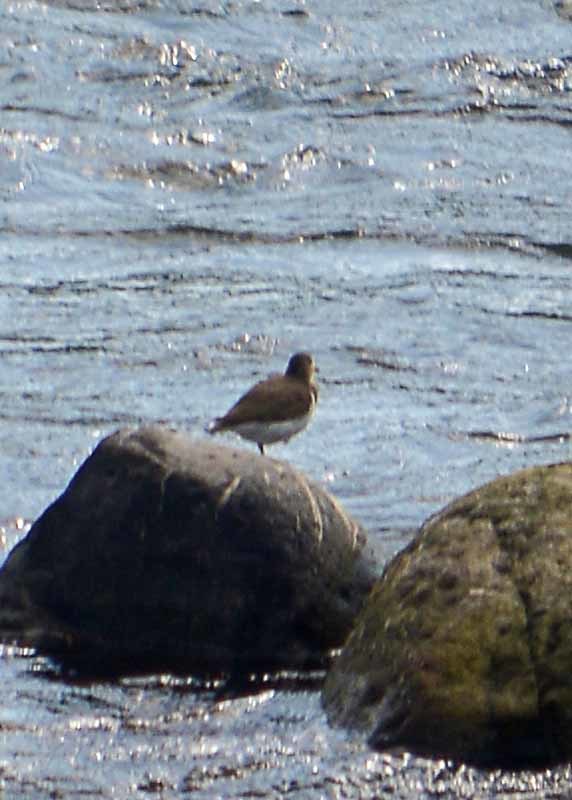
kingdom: Animalia
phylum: Chordata
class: Aves
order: Charadriiformes
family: Scolopacidae
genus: Actitis
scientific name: Actitis macularius
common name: Spotted sandpiper
